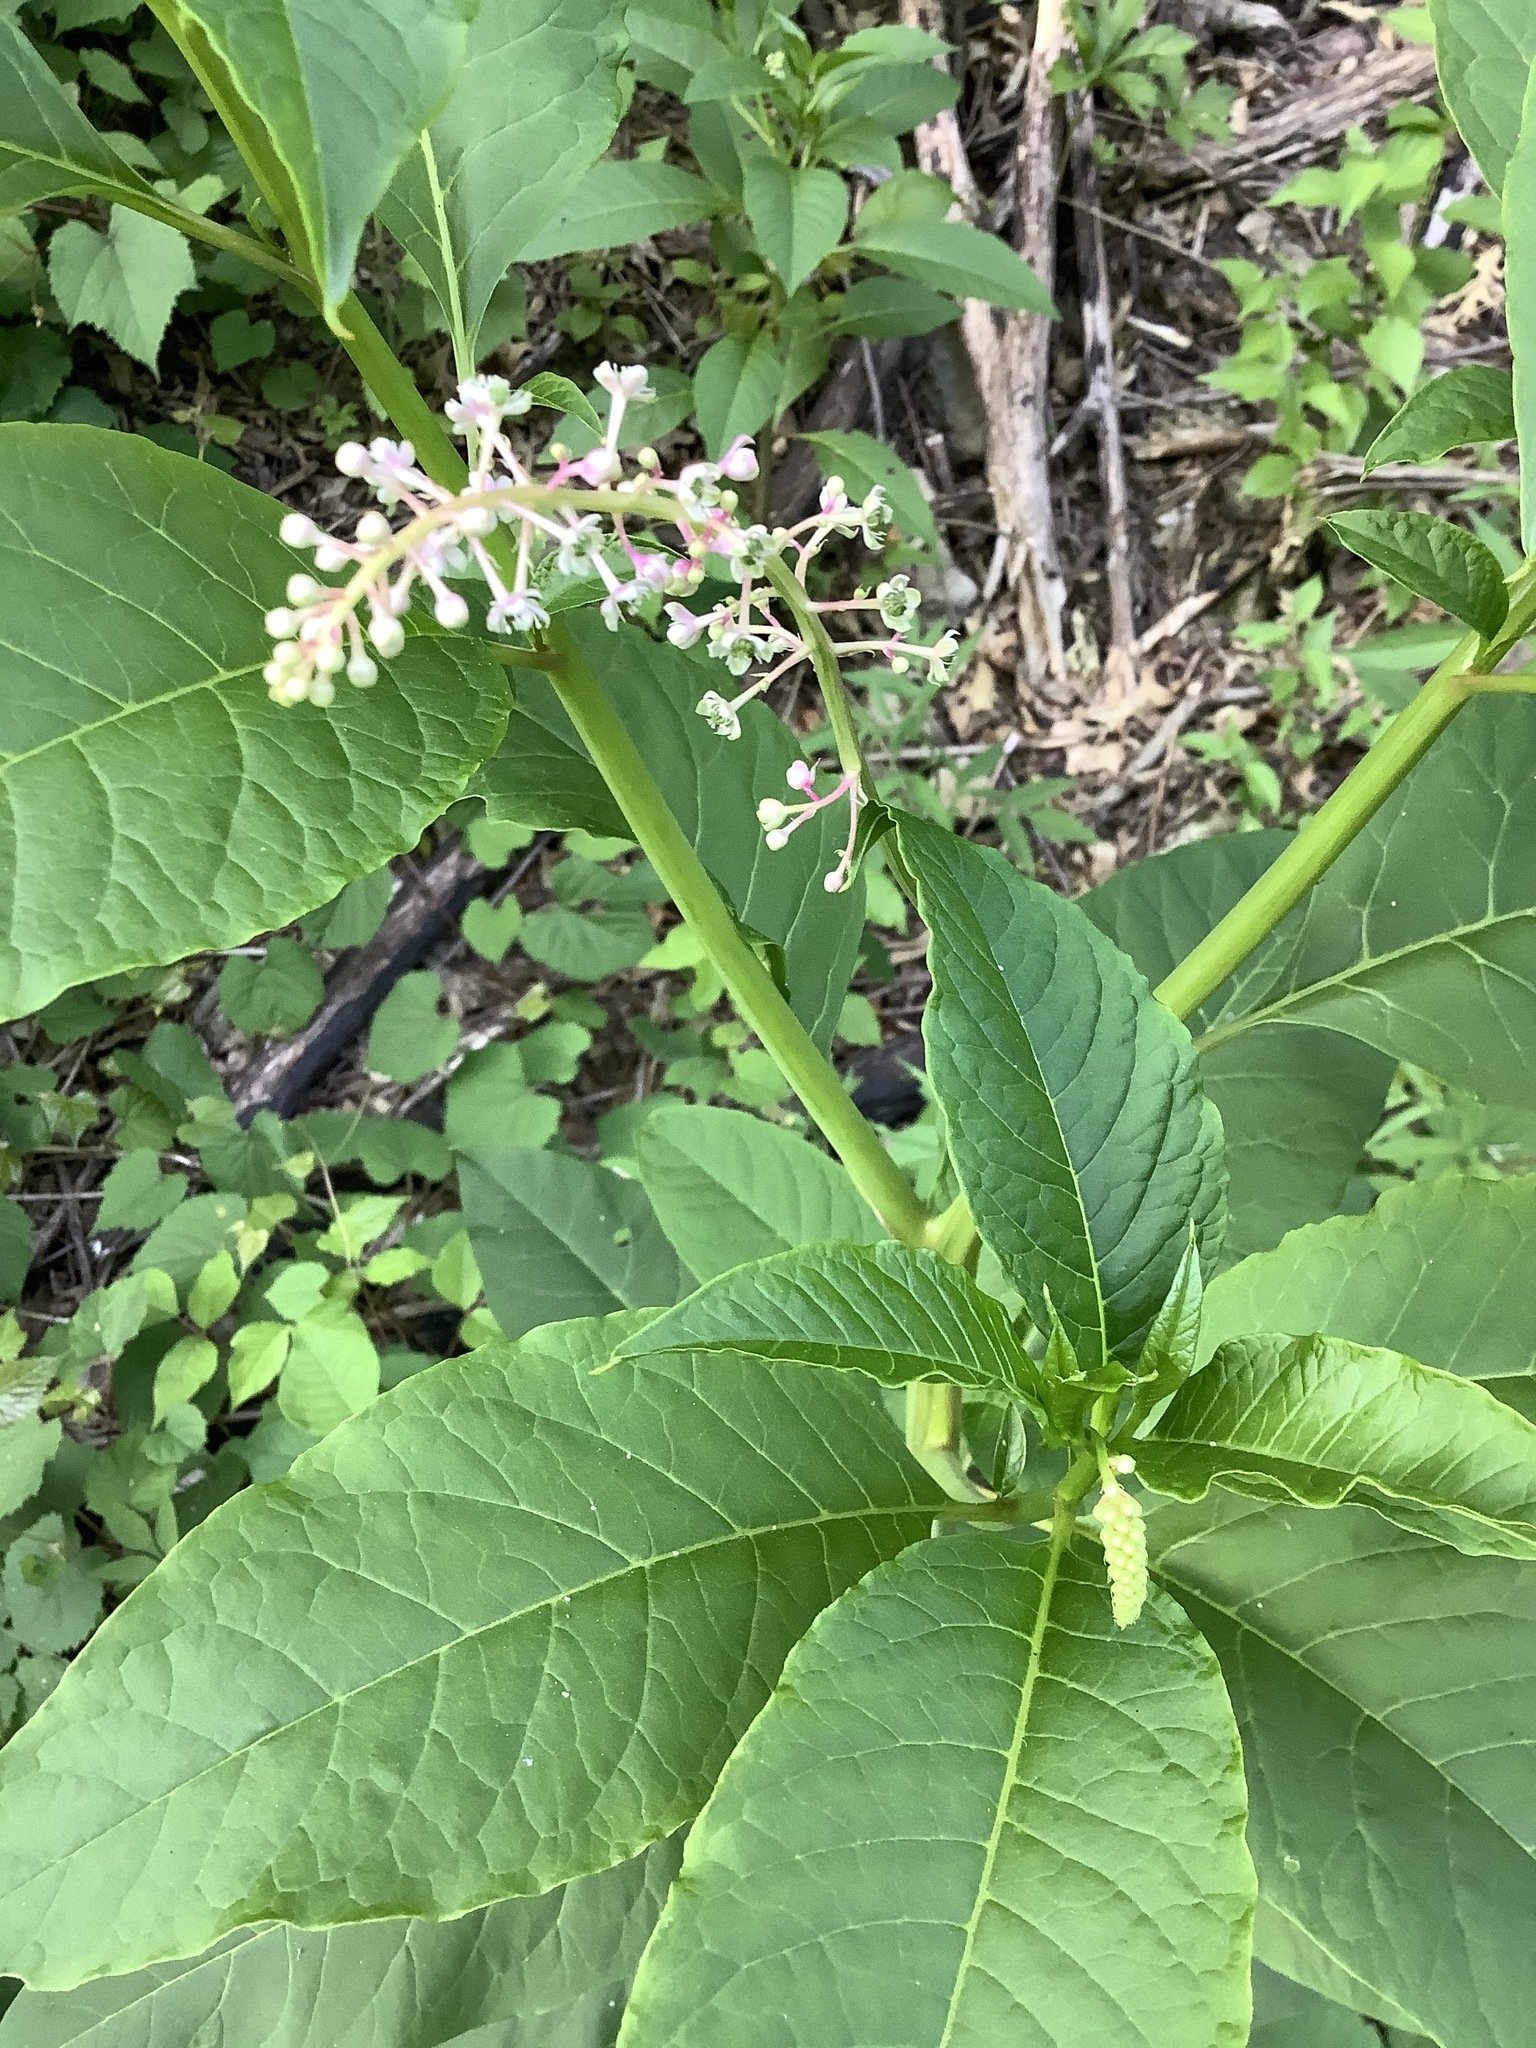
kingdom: Plantae
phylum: Tracheophyta
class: Magnoliopsida
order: Caryophyllales
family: Phytolaccaceae
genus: Phytolacca
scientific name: Phytolacca americana
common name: American pokeweed
